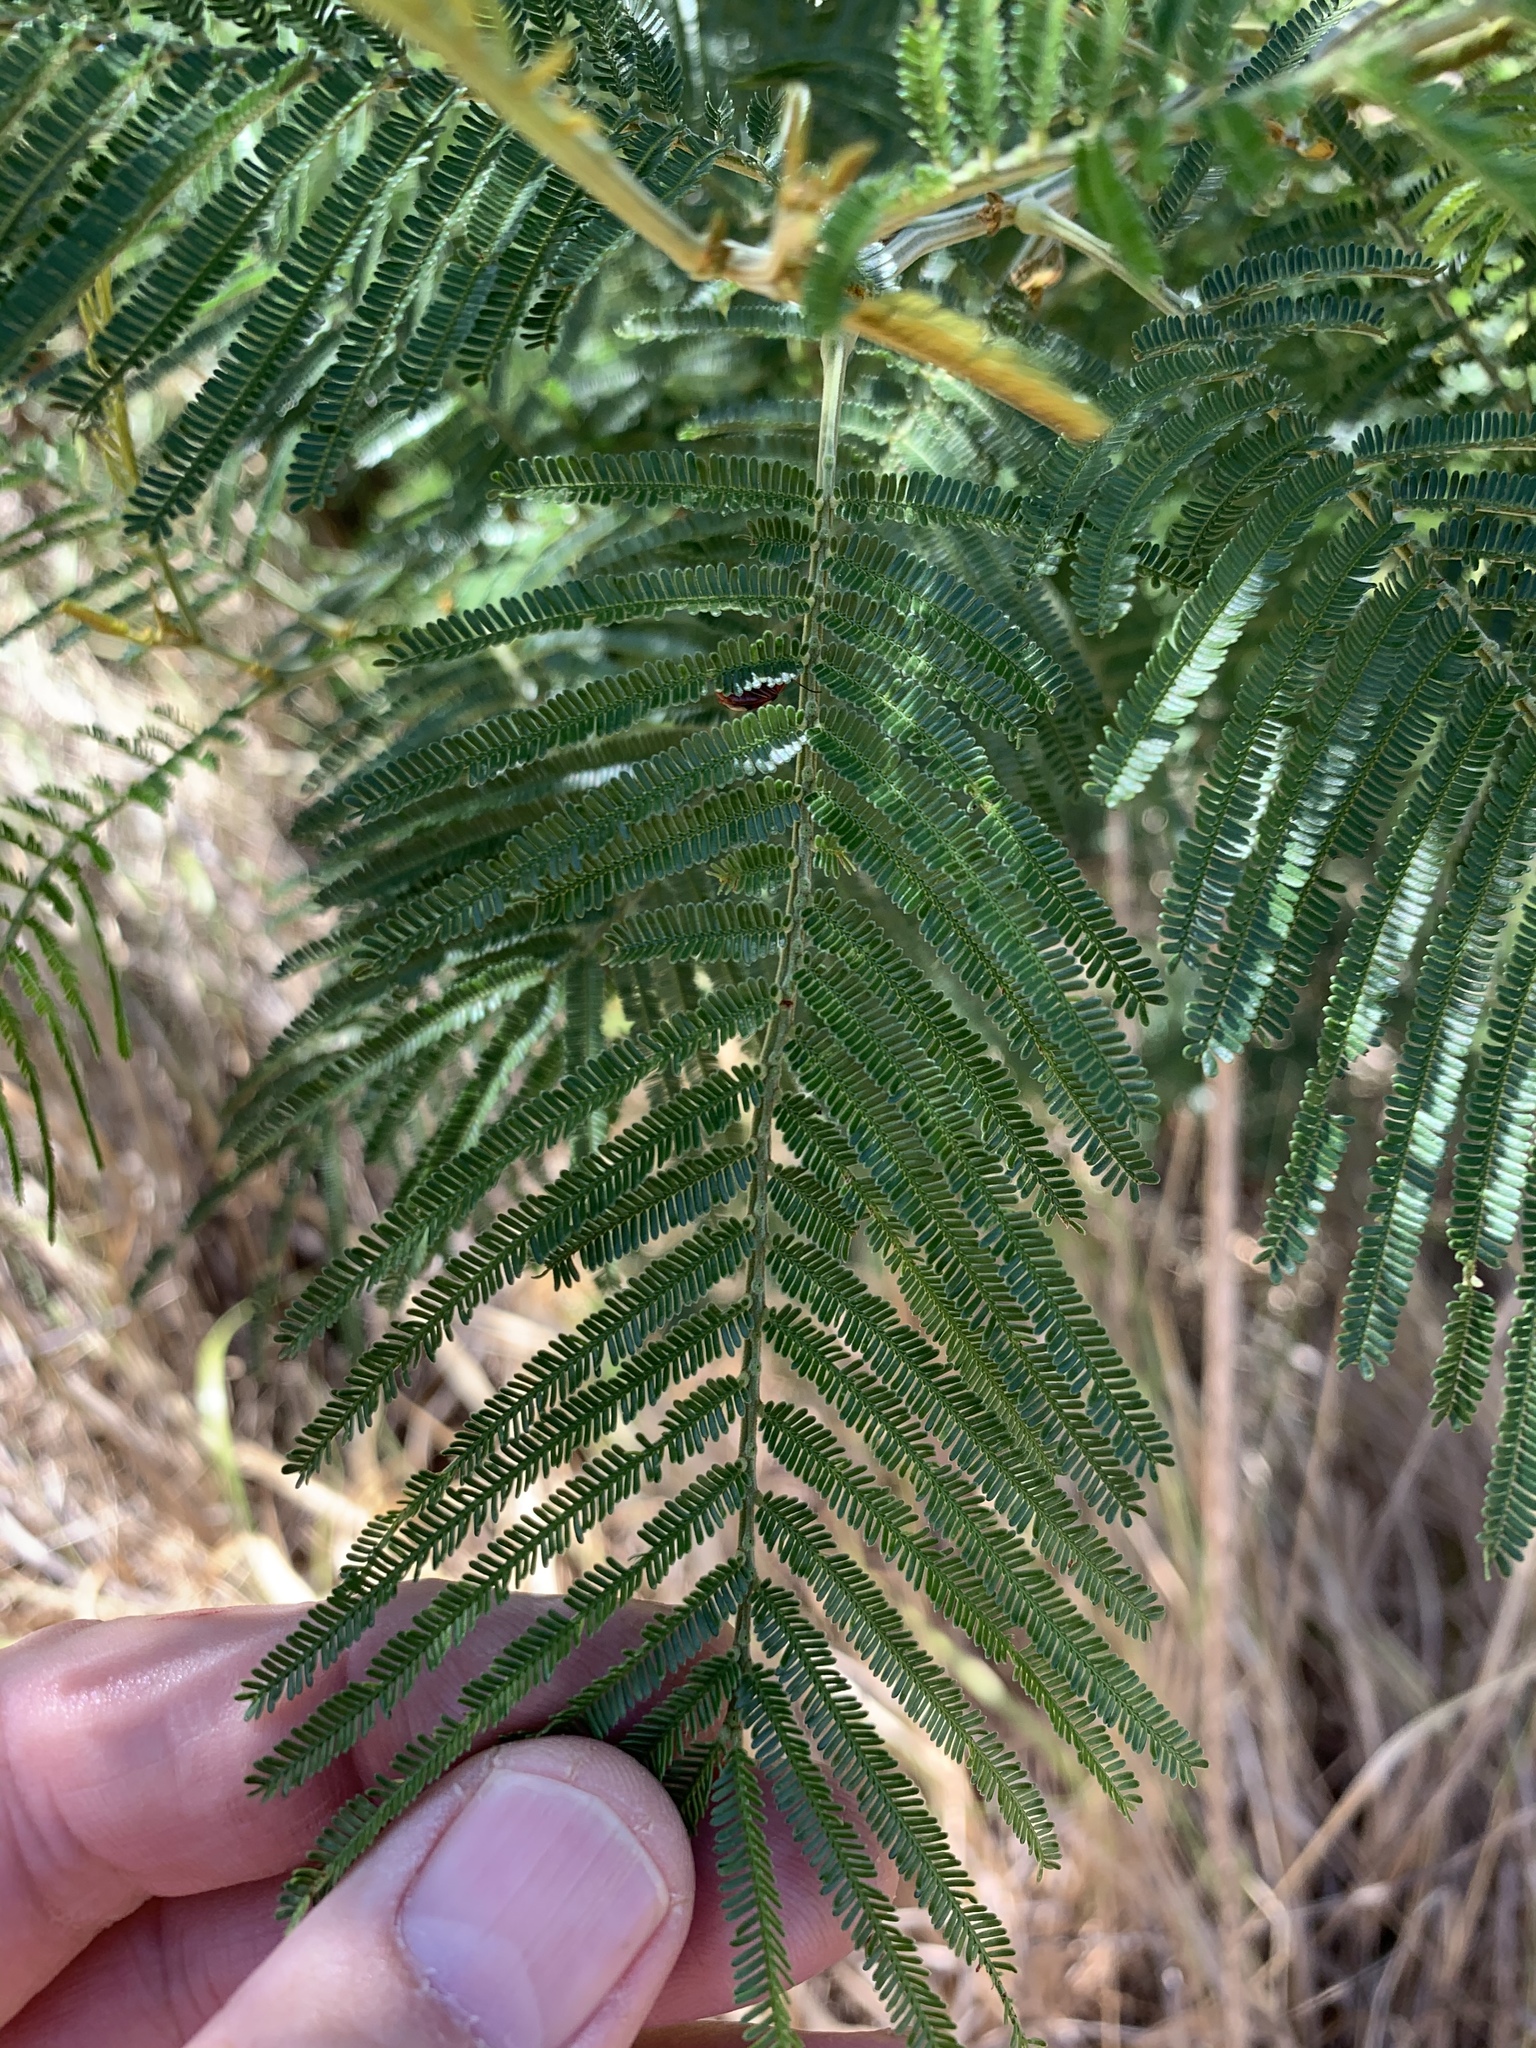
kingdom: Plantae
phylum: Tracheophyta
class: Magnoliopsida
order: Fabales
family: Fabaceae
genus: Acacia
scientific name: Acacia mearnsii
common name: Black wattle
